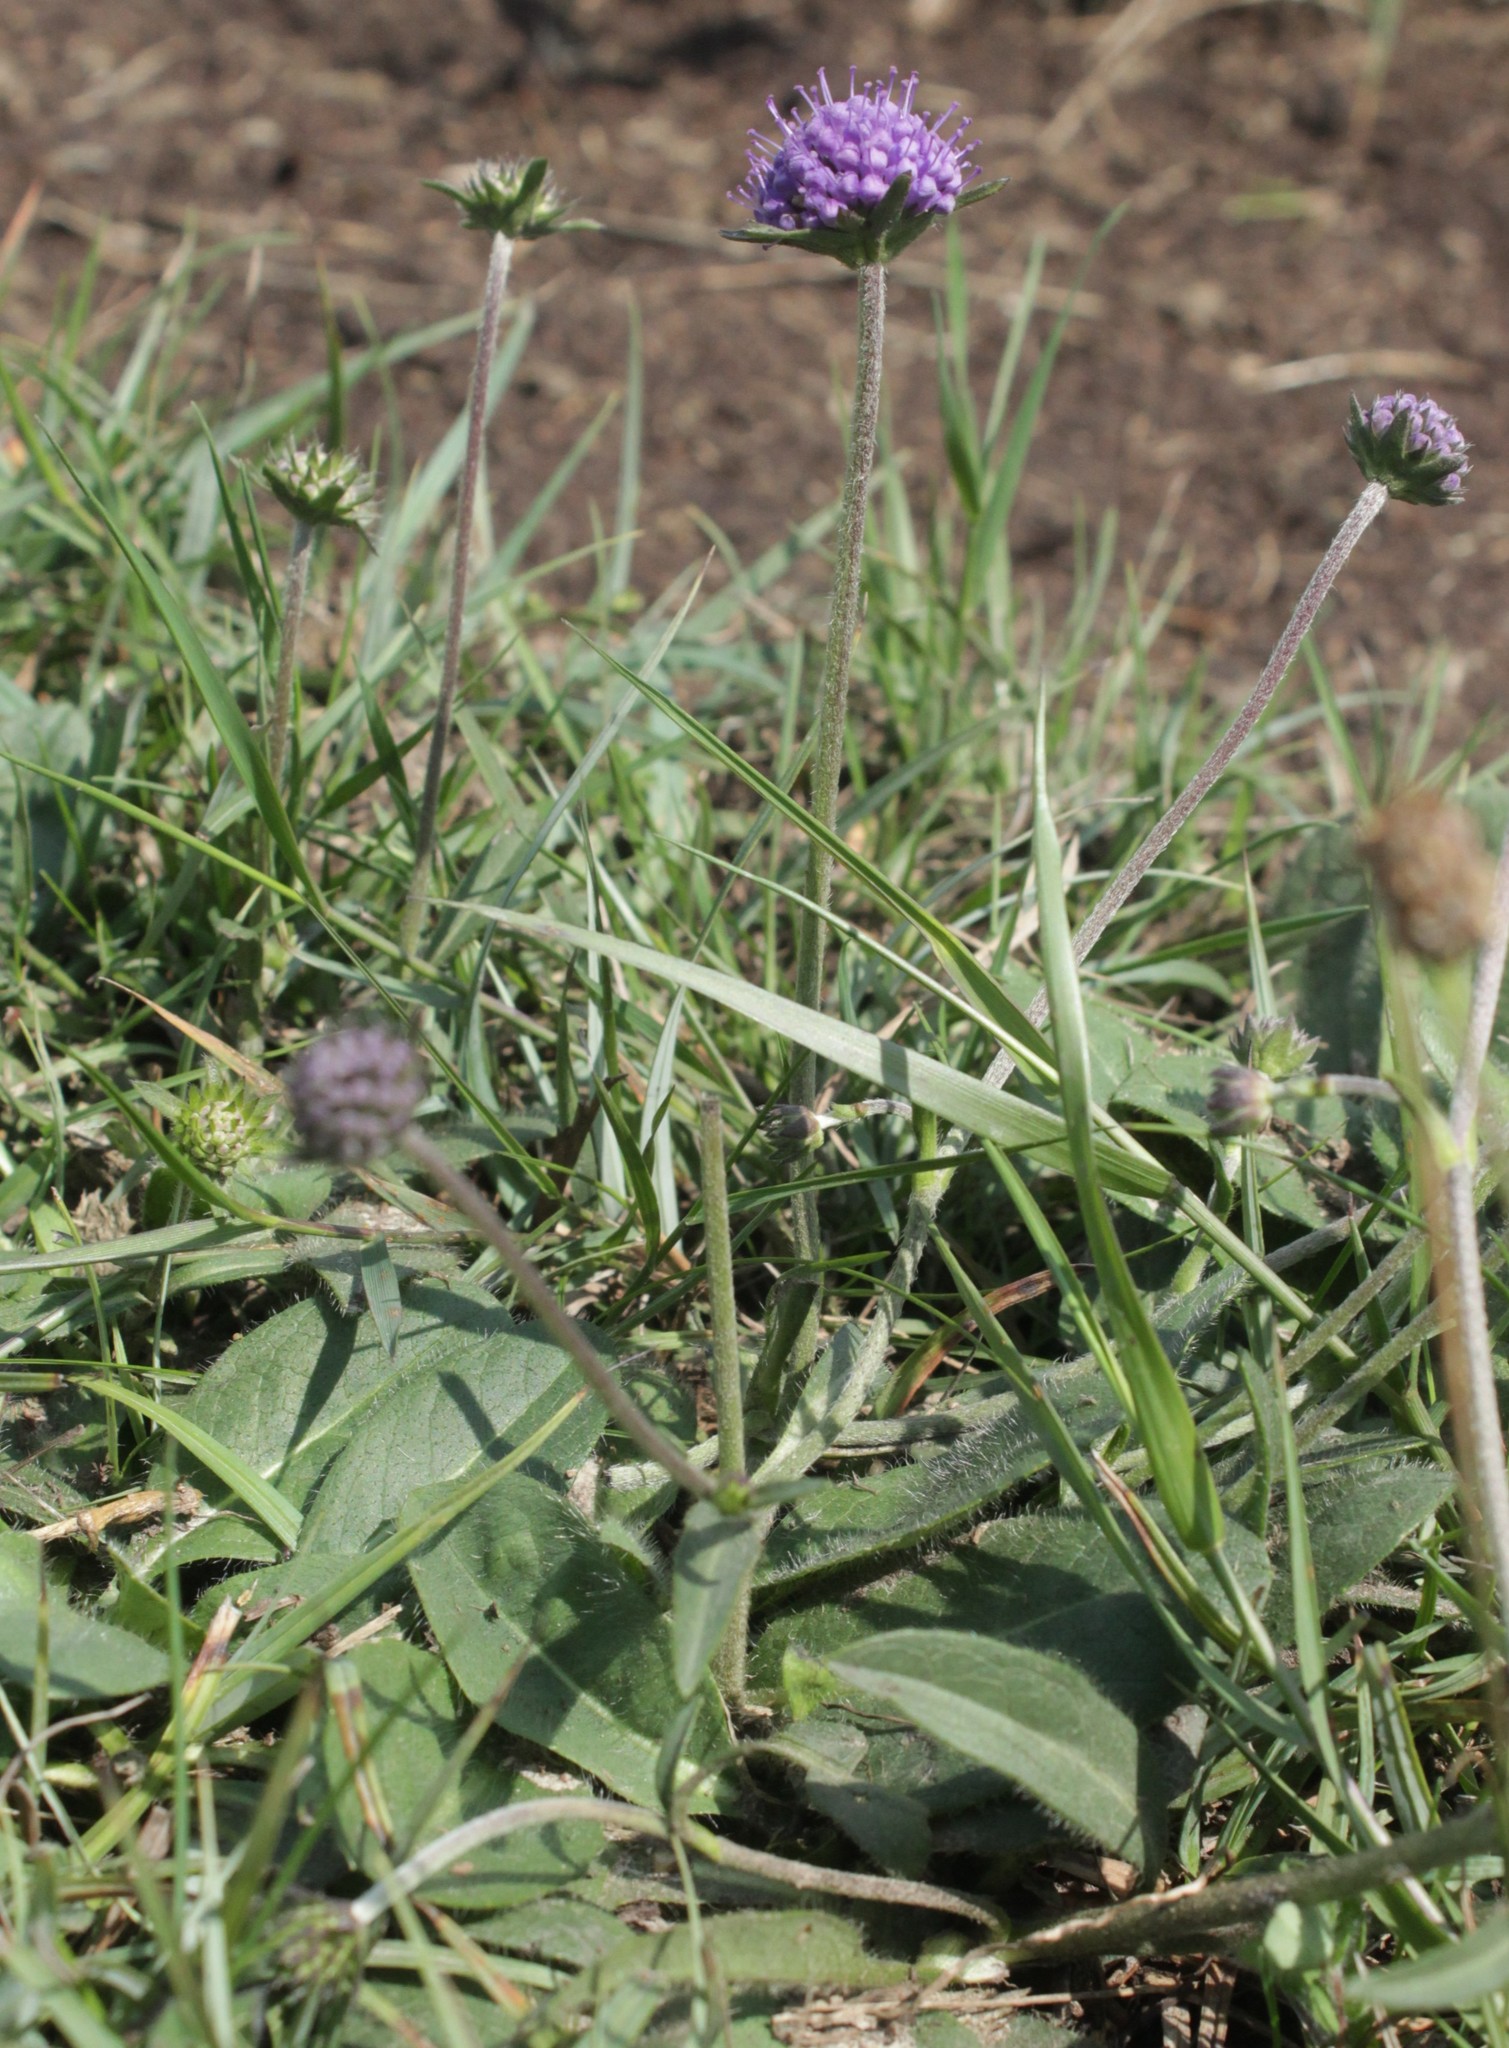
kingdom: Plantae
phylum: Tracheophyta
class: Magnoliopsida
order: Dipsacales
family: Caprifoliaceae
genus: Succisa
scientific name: Succisa pratensis
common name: Devil's-bit
